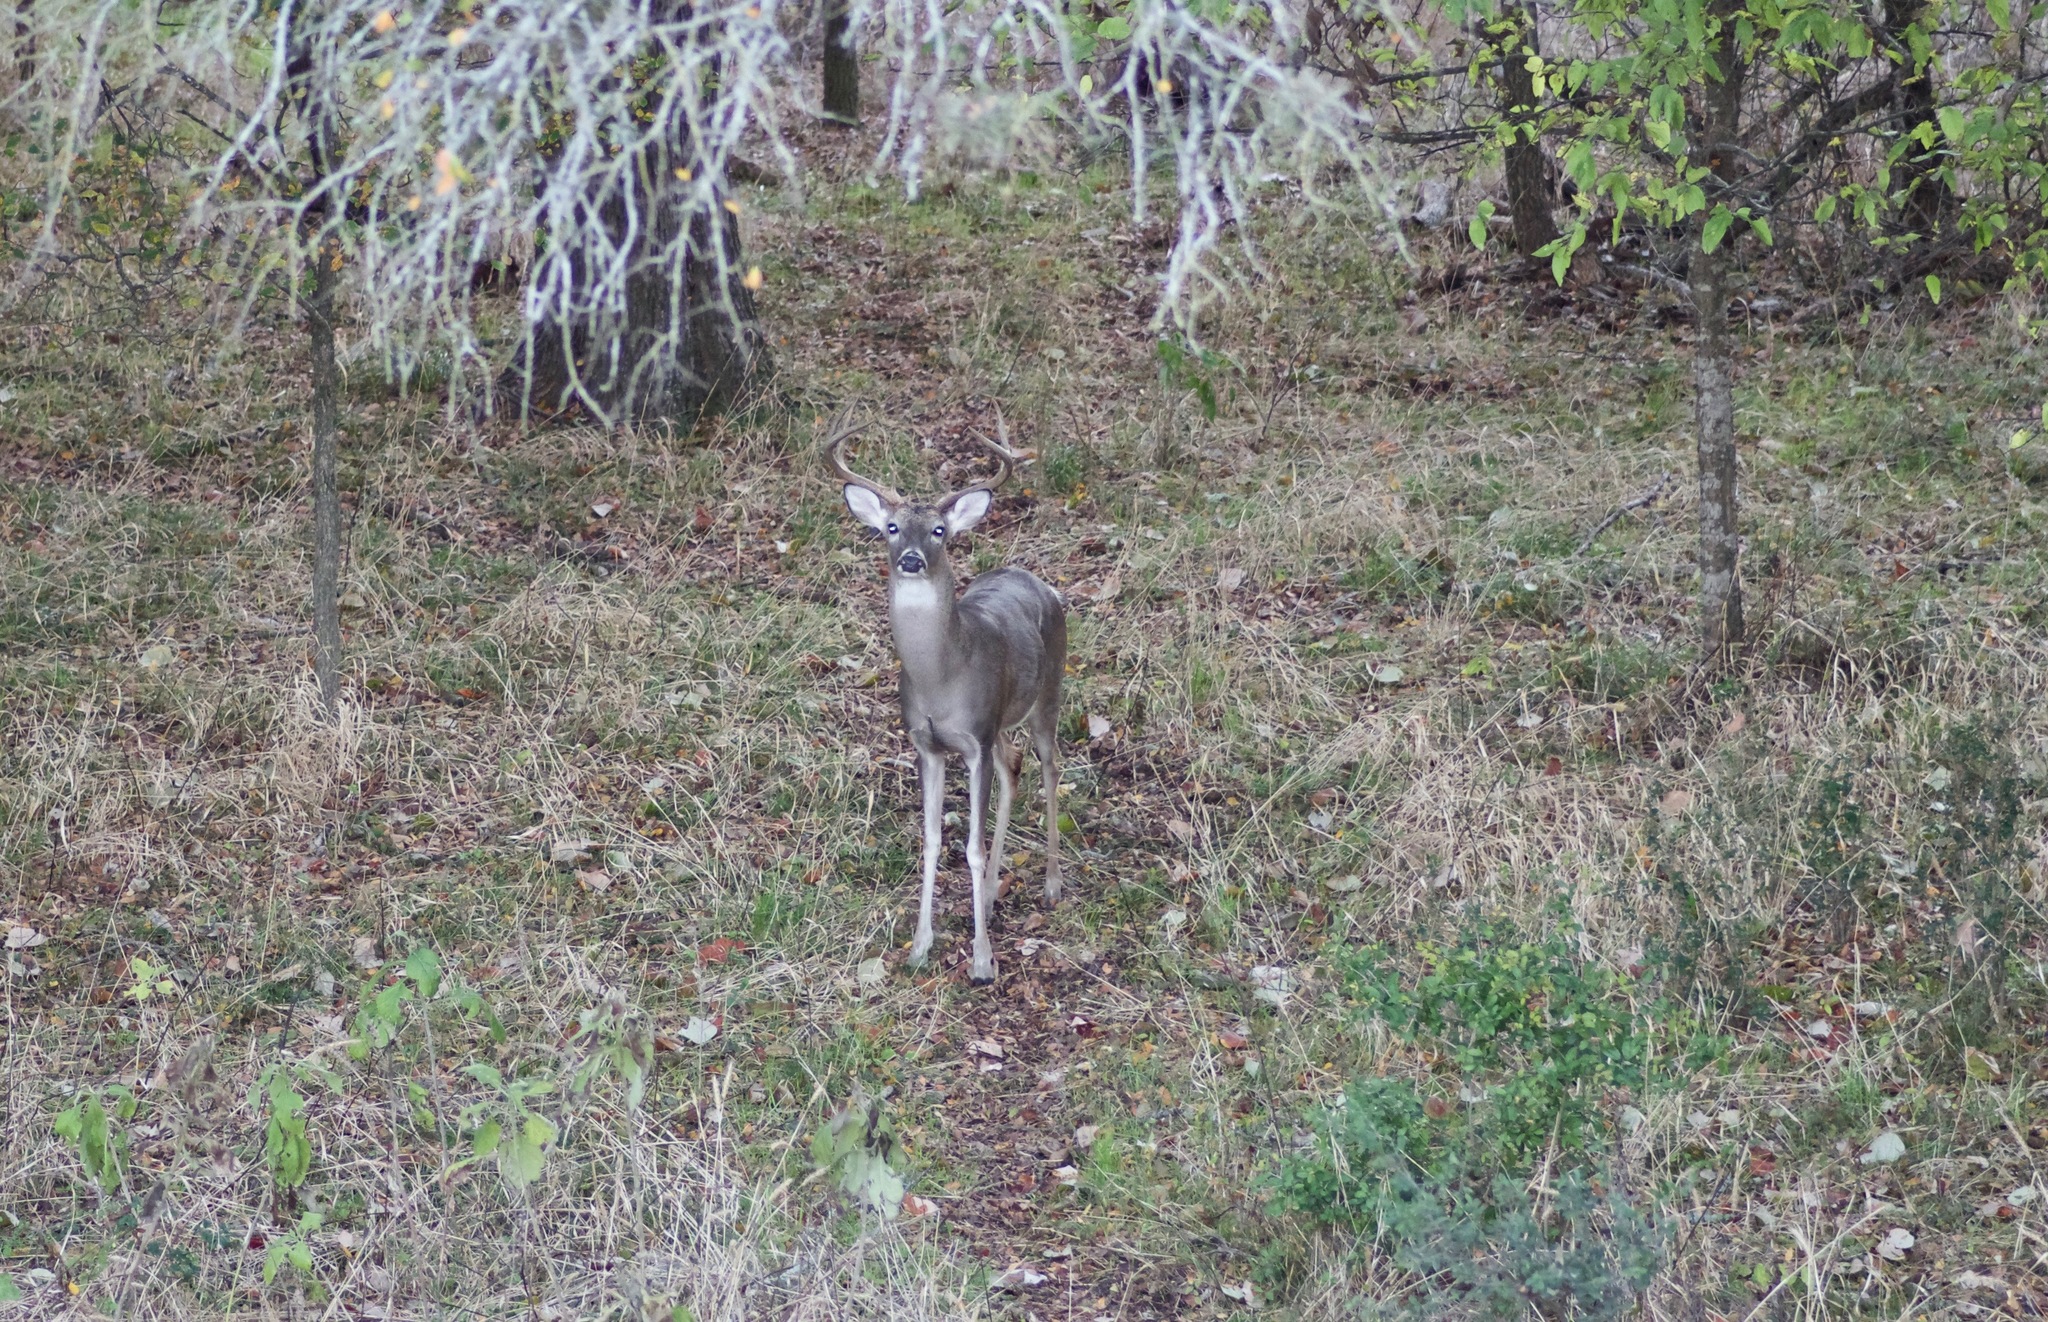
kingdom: Animalia
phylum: Chordata
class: Mammalia
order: Artiodactyla
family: Cervidae
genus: Odocoileus
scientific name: Odocoileus virginianus
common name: White-tailed deer
